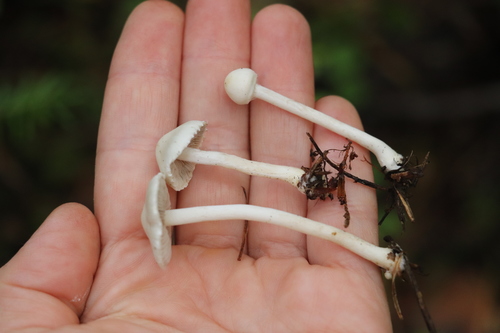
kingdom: Fungi
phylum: Basidiomycota
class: Agaricomycetes
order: Agaricales
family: Inocybaceae
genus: Inocybe
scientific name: Inocybe geophylla
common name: White fibrecap
